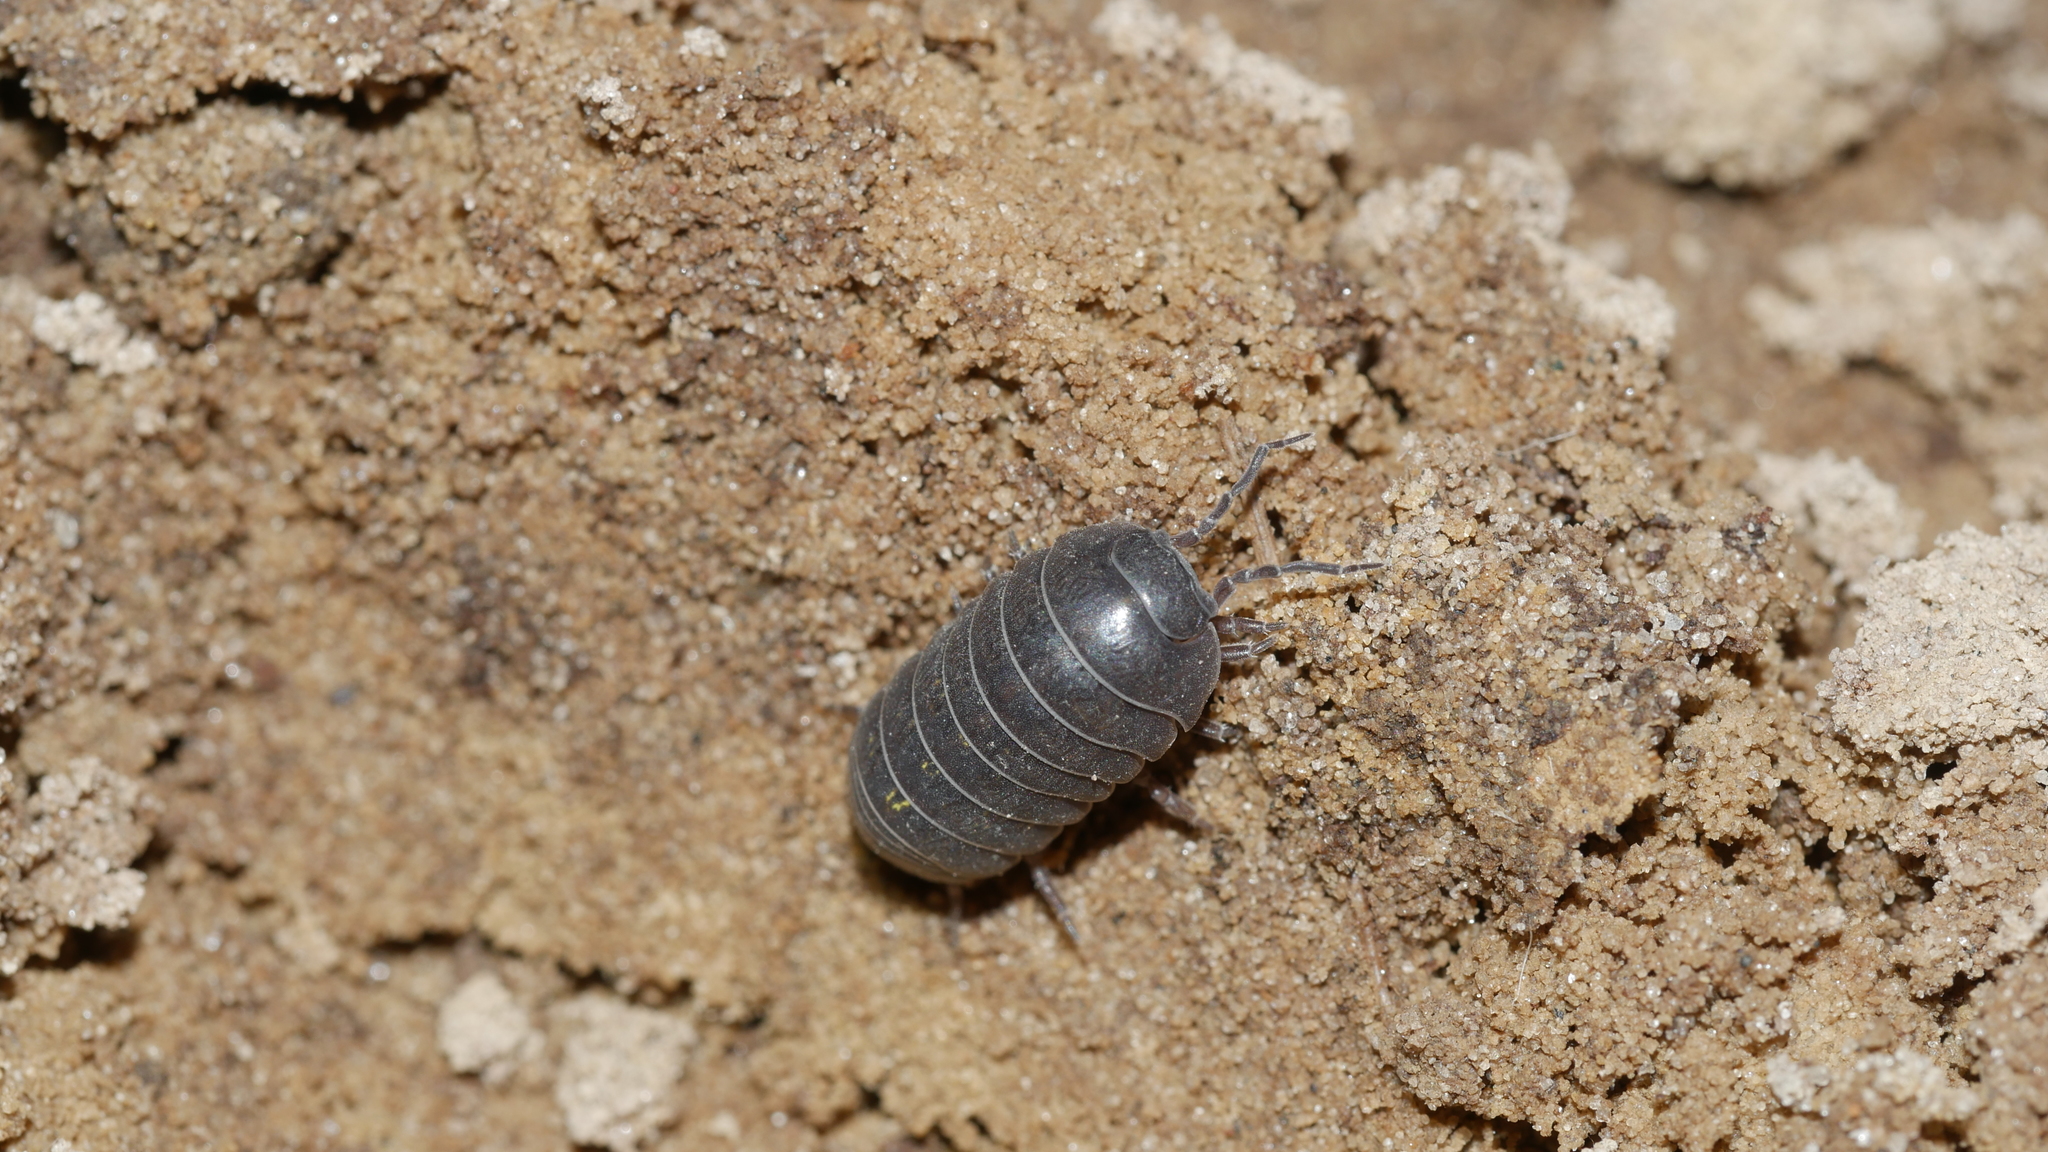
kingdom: Animalia
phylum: Arthropoda
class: Malacostraca
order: Isopoda
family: Armadillidiidae
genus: Armadillidium
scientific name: Armadillidium vulgare
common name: Common pill woodlouse
